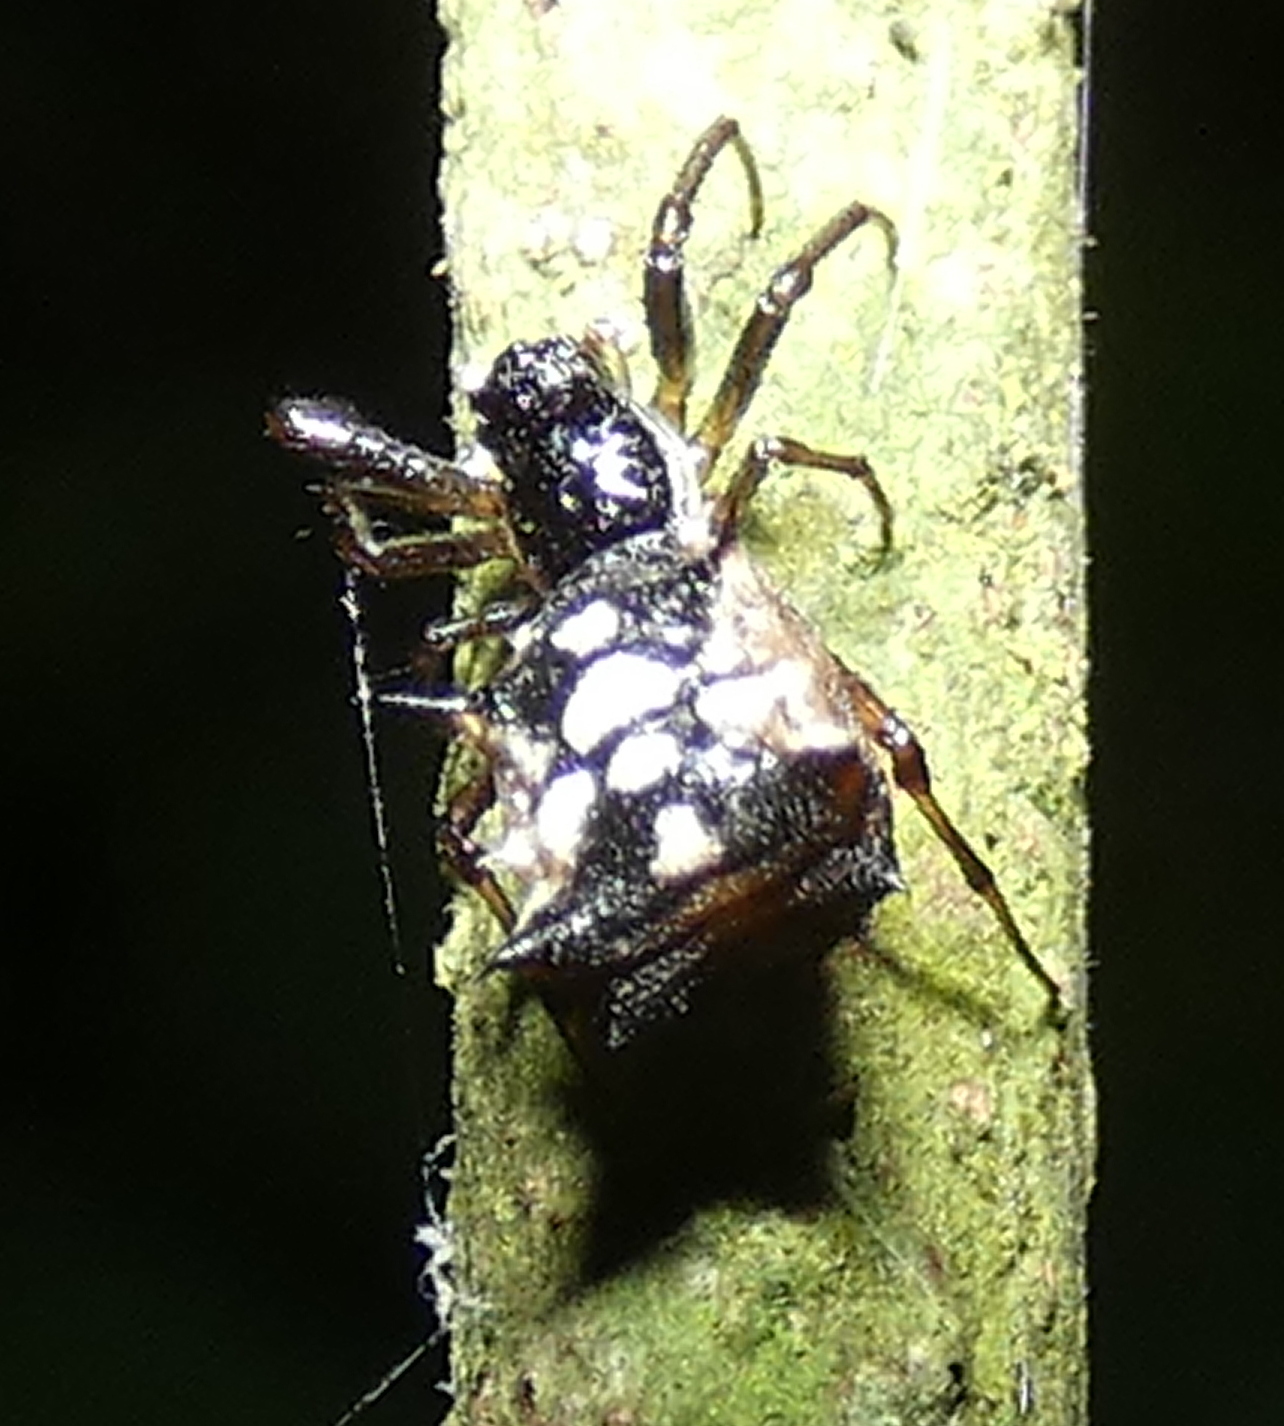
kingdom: Animalia
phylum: Arthropoda
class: Arachnida
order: Araneae
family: Araneidae
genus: Micrathena
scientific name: Micrathena picta
